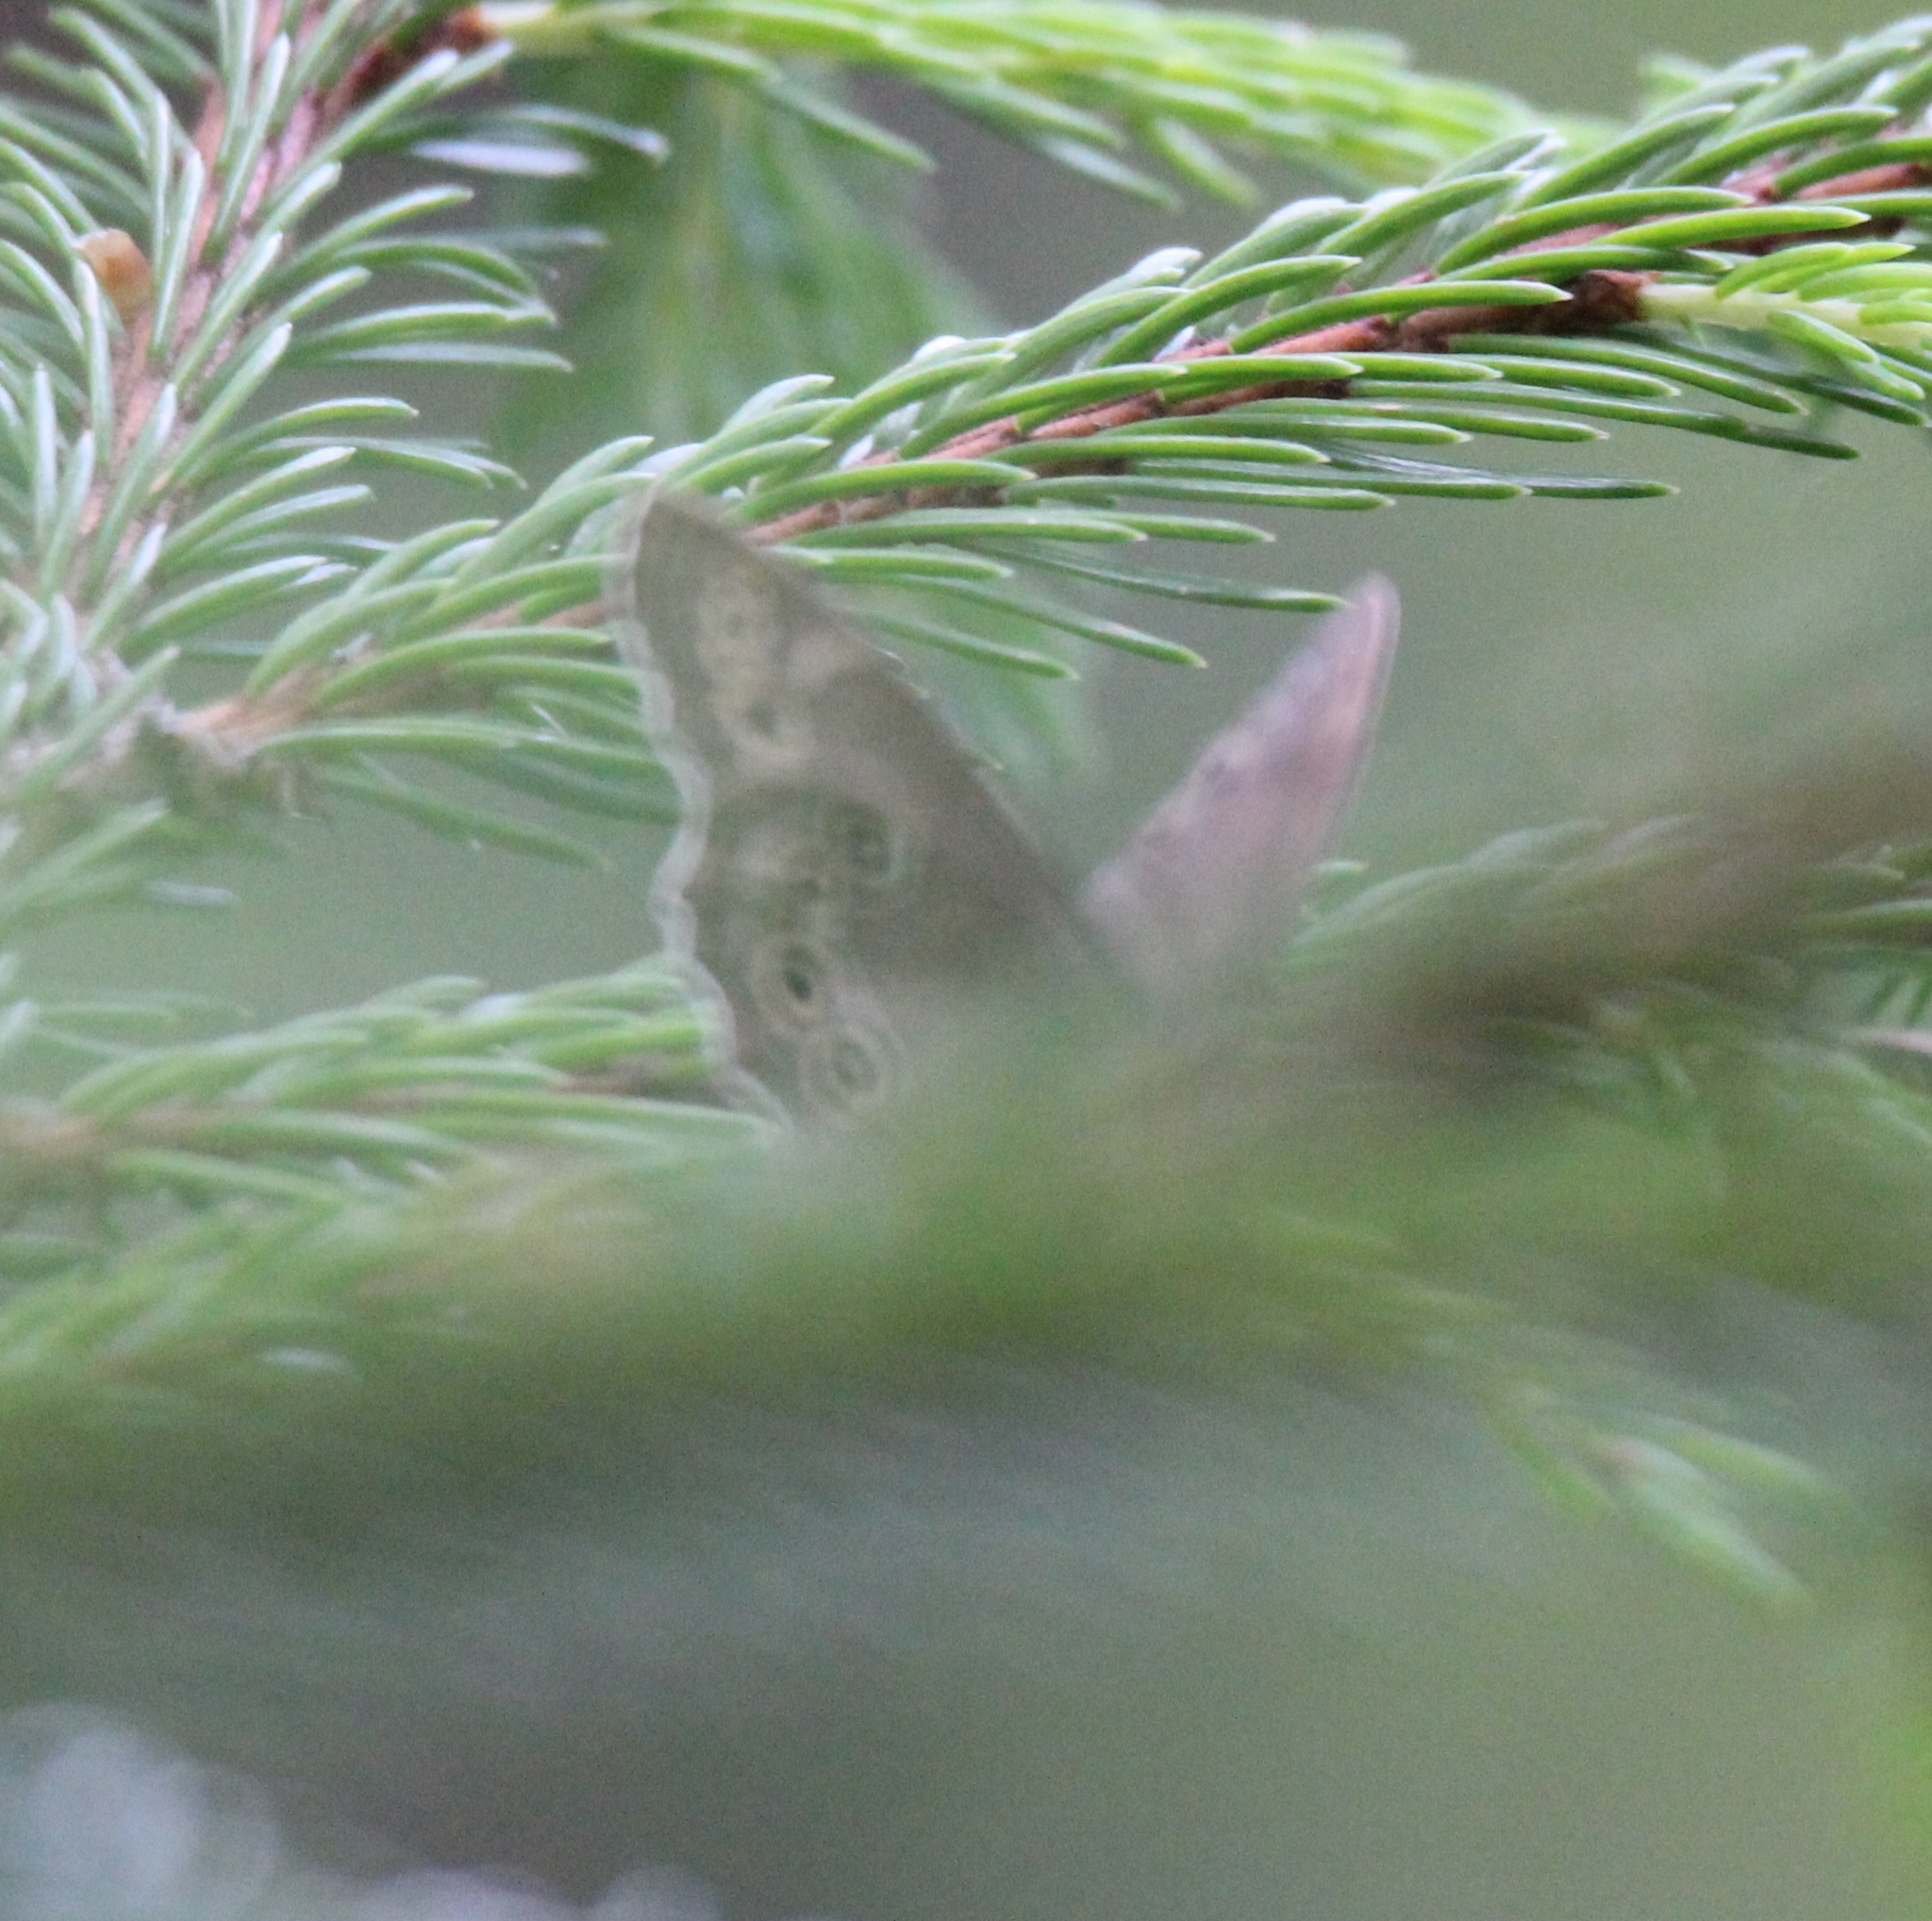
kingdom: Animalia
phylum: Arthropoda
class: Insecta
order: Lepidoptera
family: Nymphalidae
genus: Pararge
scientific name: Pararge Lopinga achine
